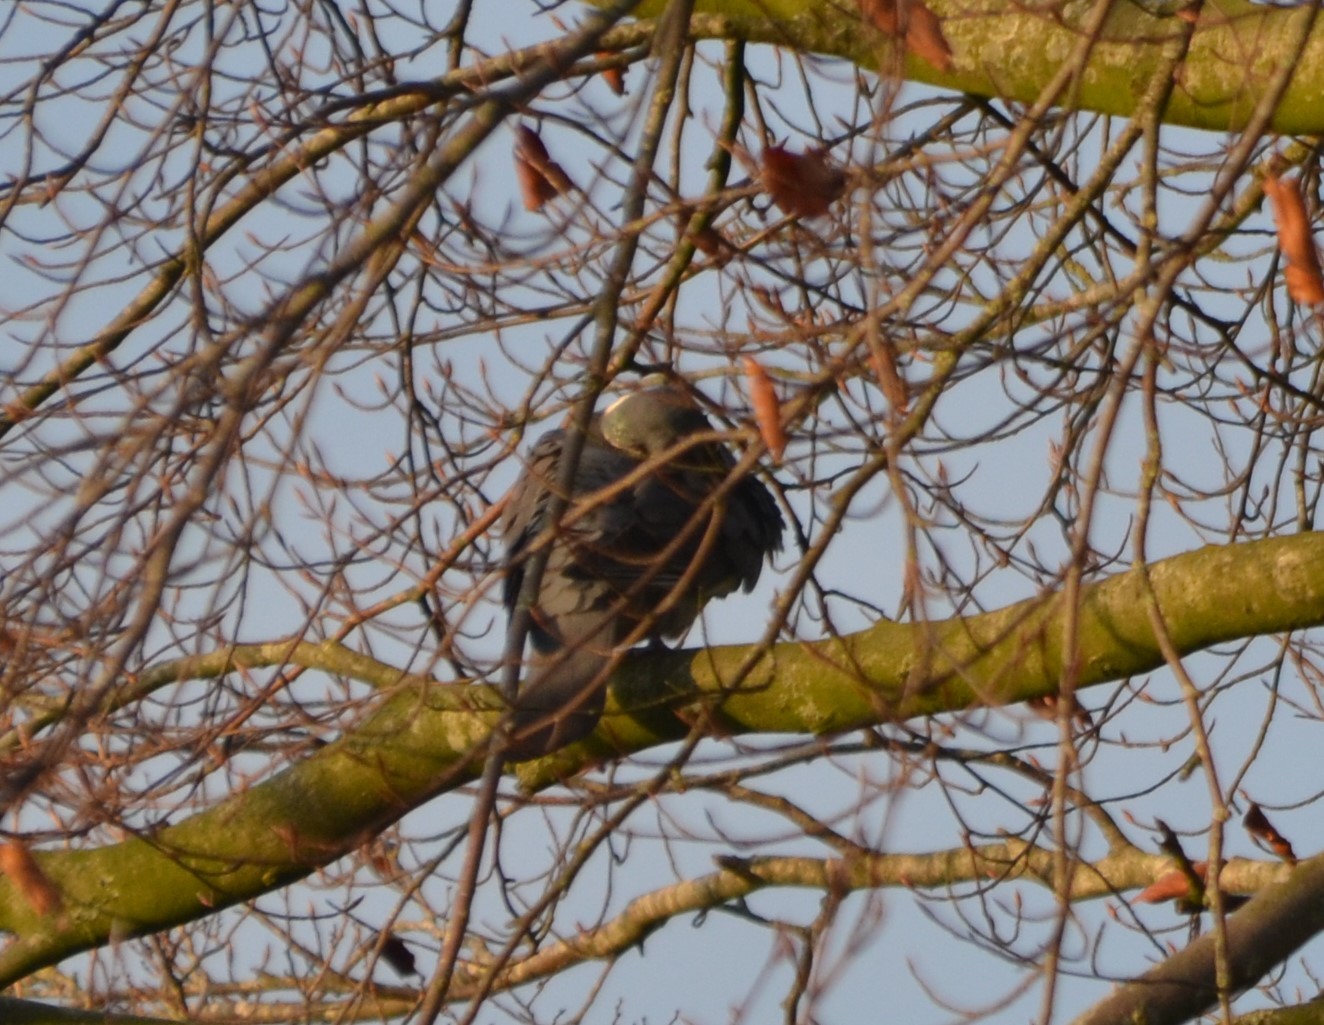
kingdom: Animalia
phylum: Chordata
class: Aves
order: Columbiformes
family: Columbidae
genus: Columba
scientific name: Columba palumbus
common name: Common wood pigeon
